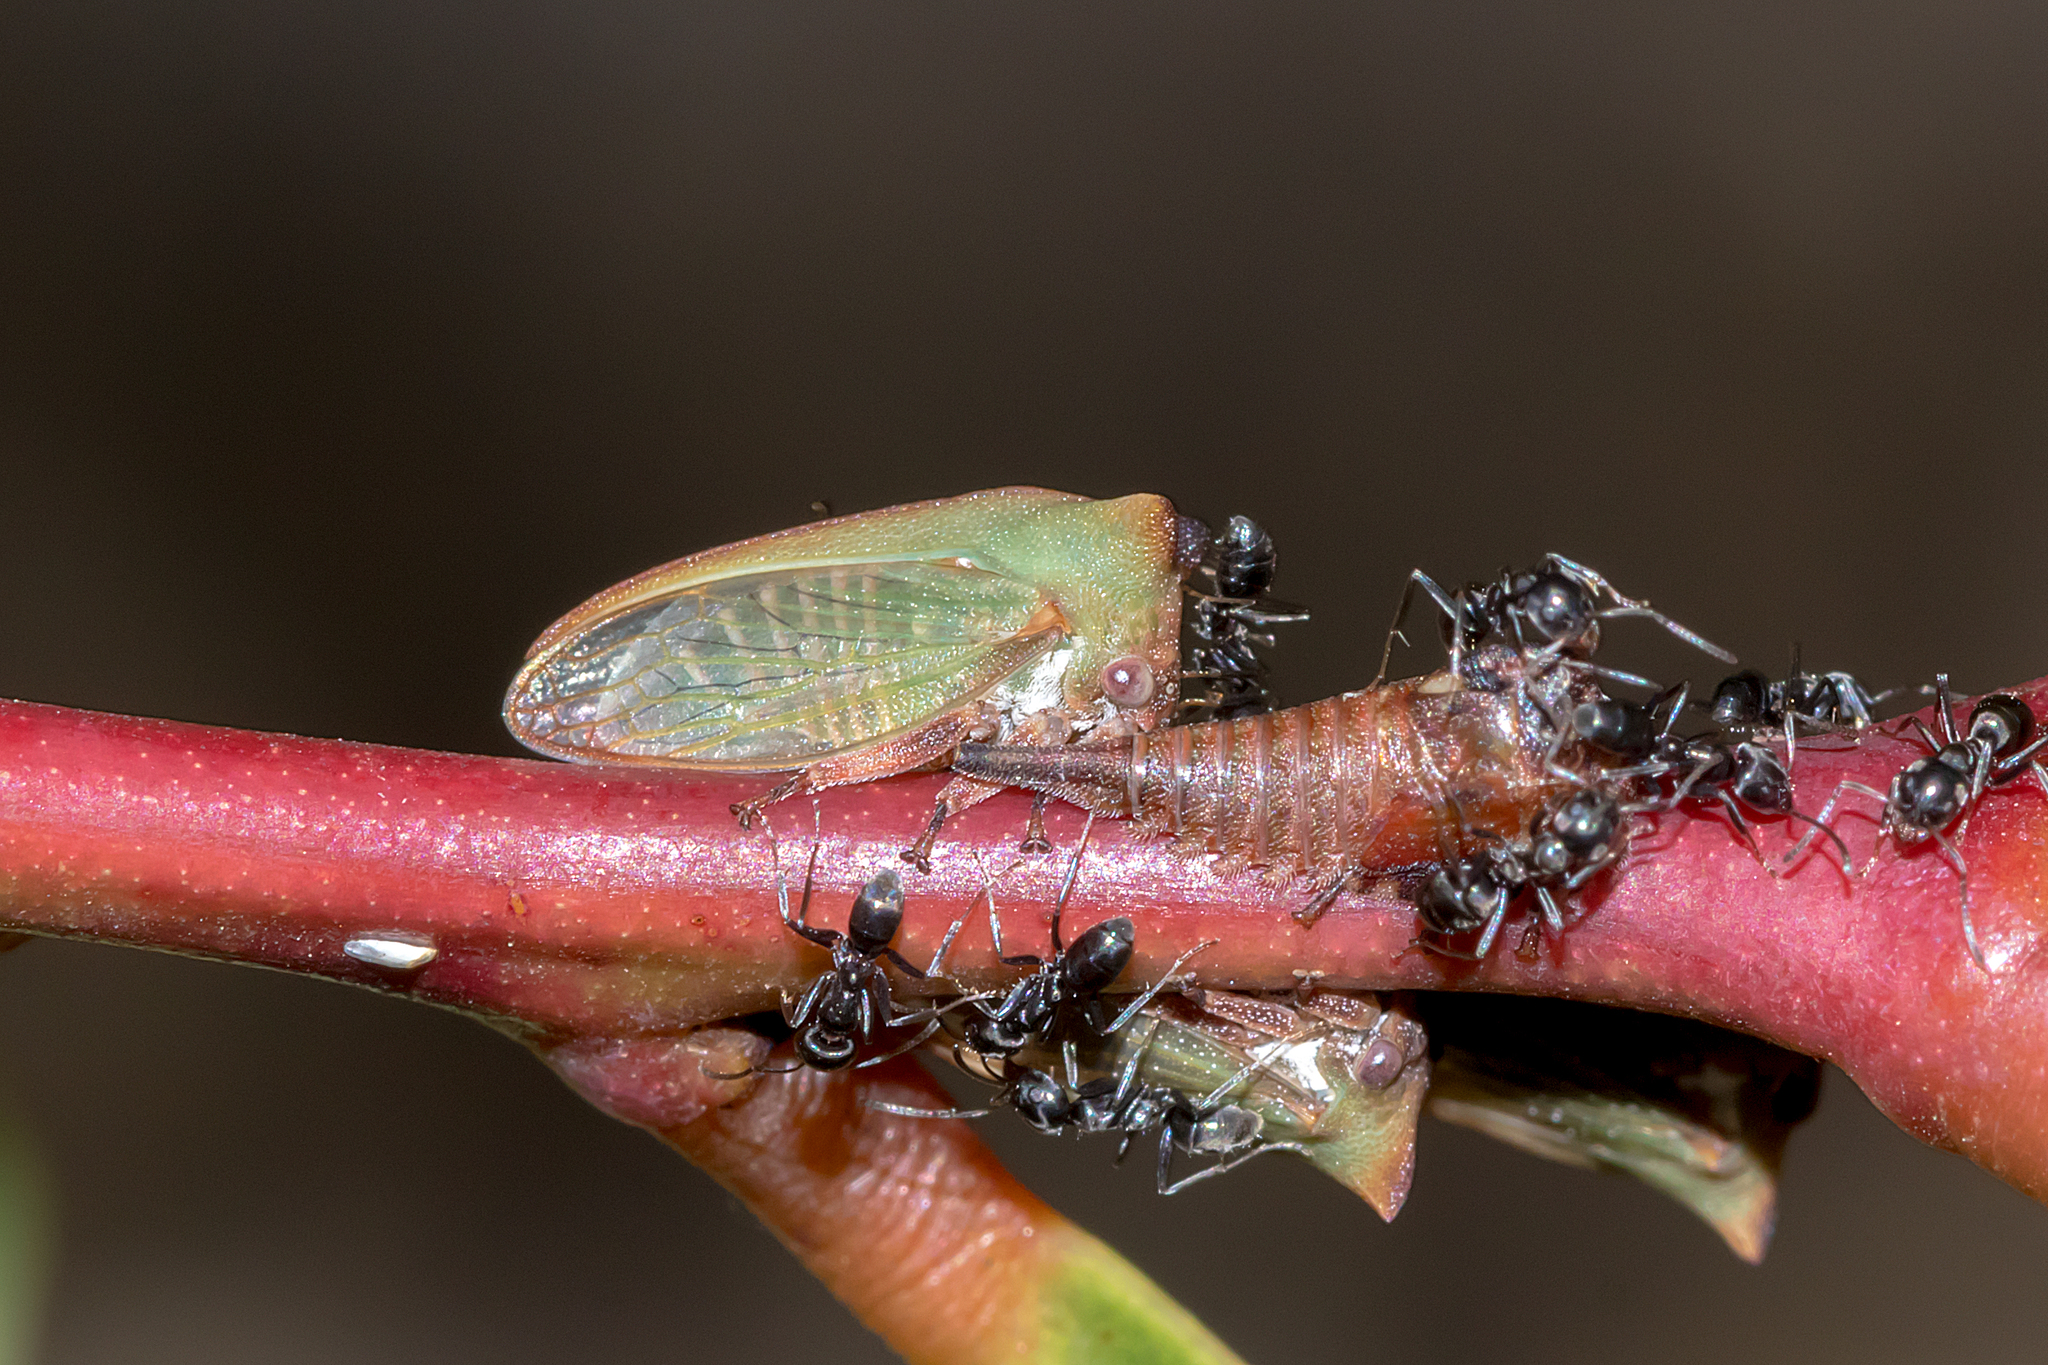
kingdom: Animalia
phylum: Arthropoda
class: Insecta
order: Hemiptera
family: Membracidae
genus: Sextius
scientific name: Sextius virescens
